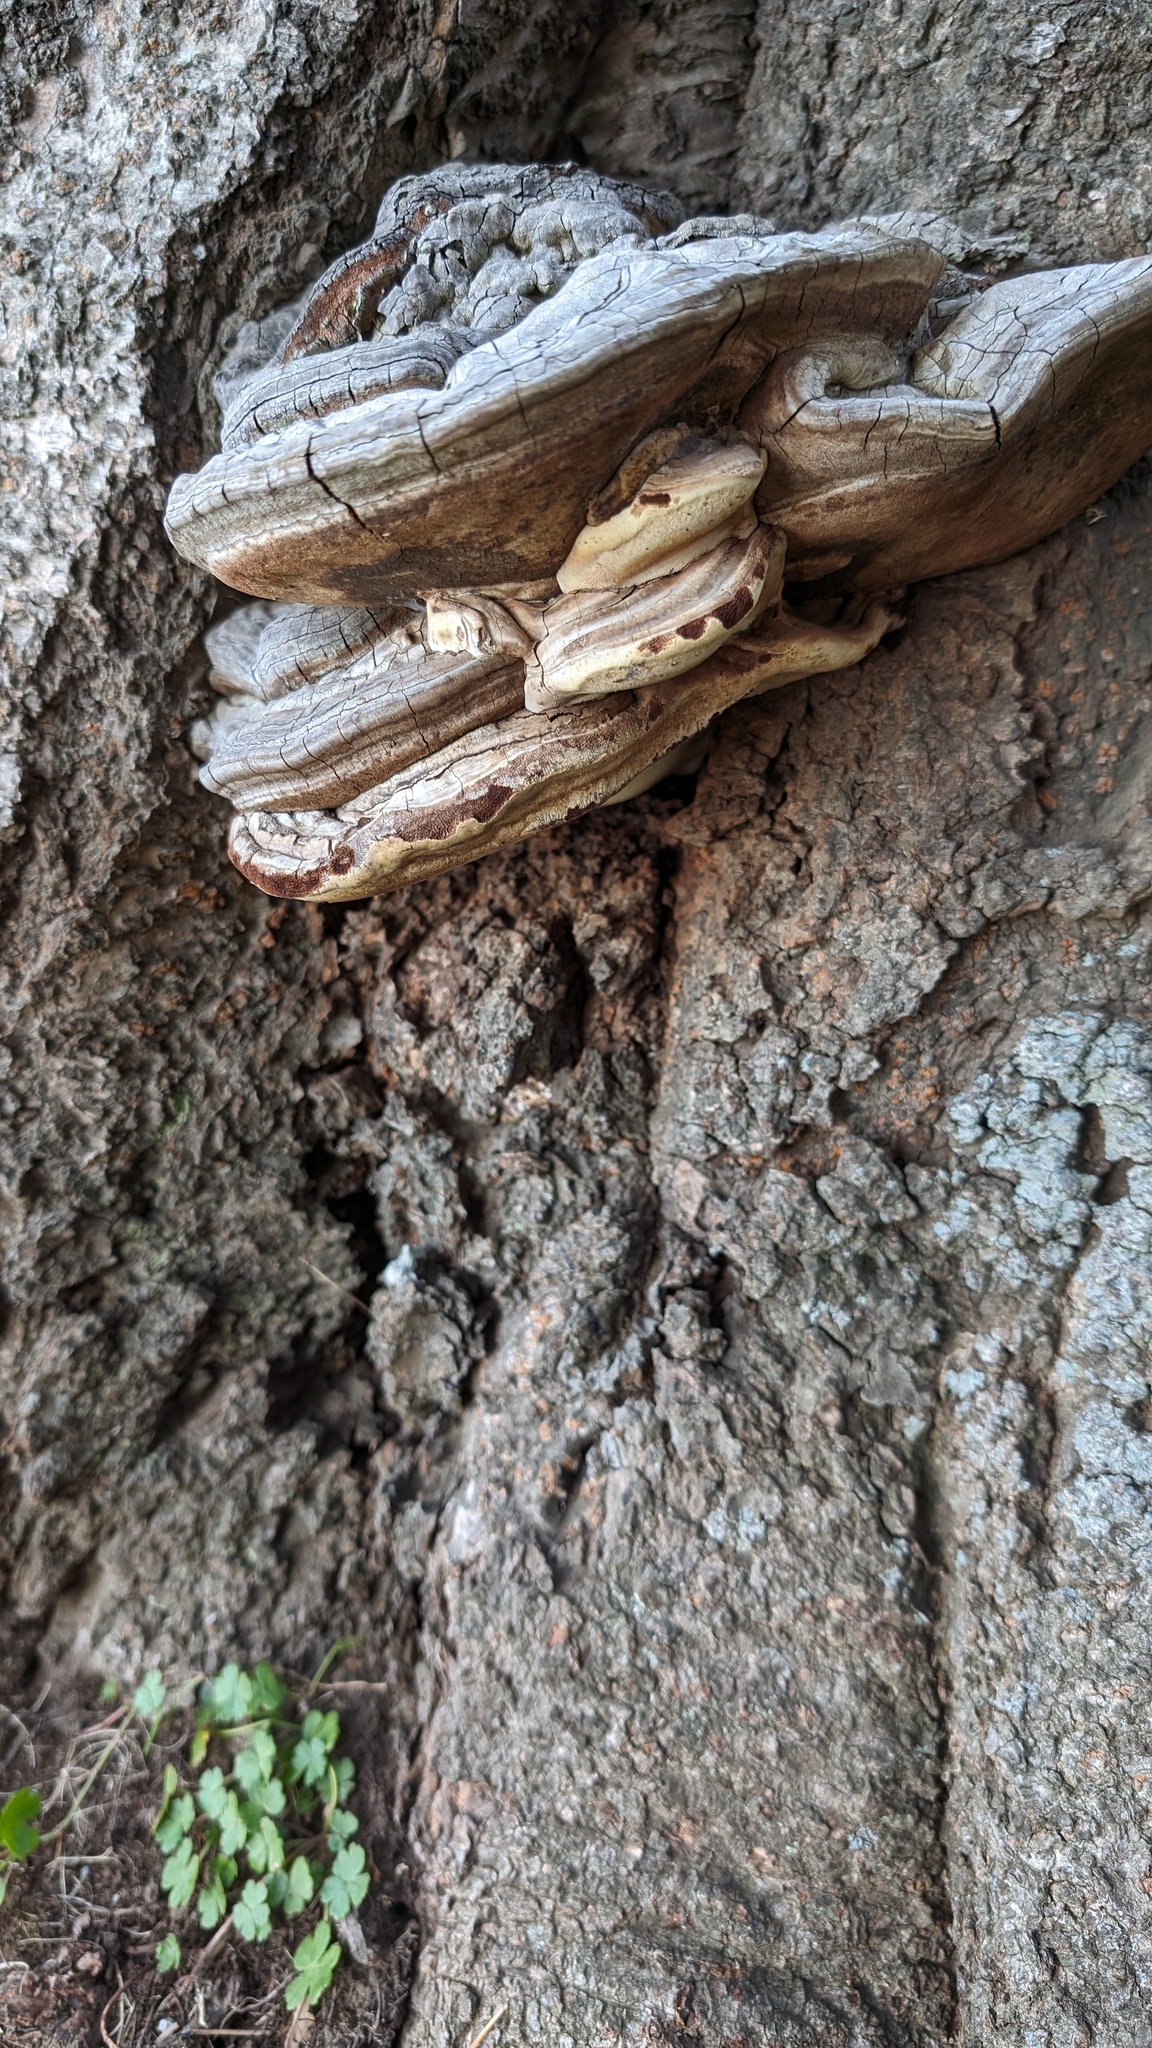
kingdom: Fungi
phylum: Basidiomycota
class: Agaricomycetes
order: Polyporales
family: Polyporaceae
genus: Ganoderma
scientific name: Ganoderma applanatum
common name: Artist's bracket
